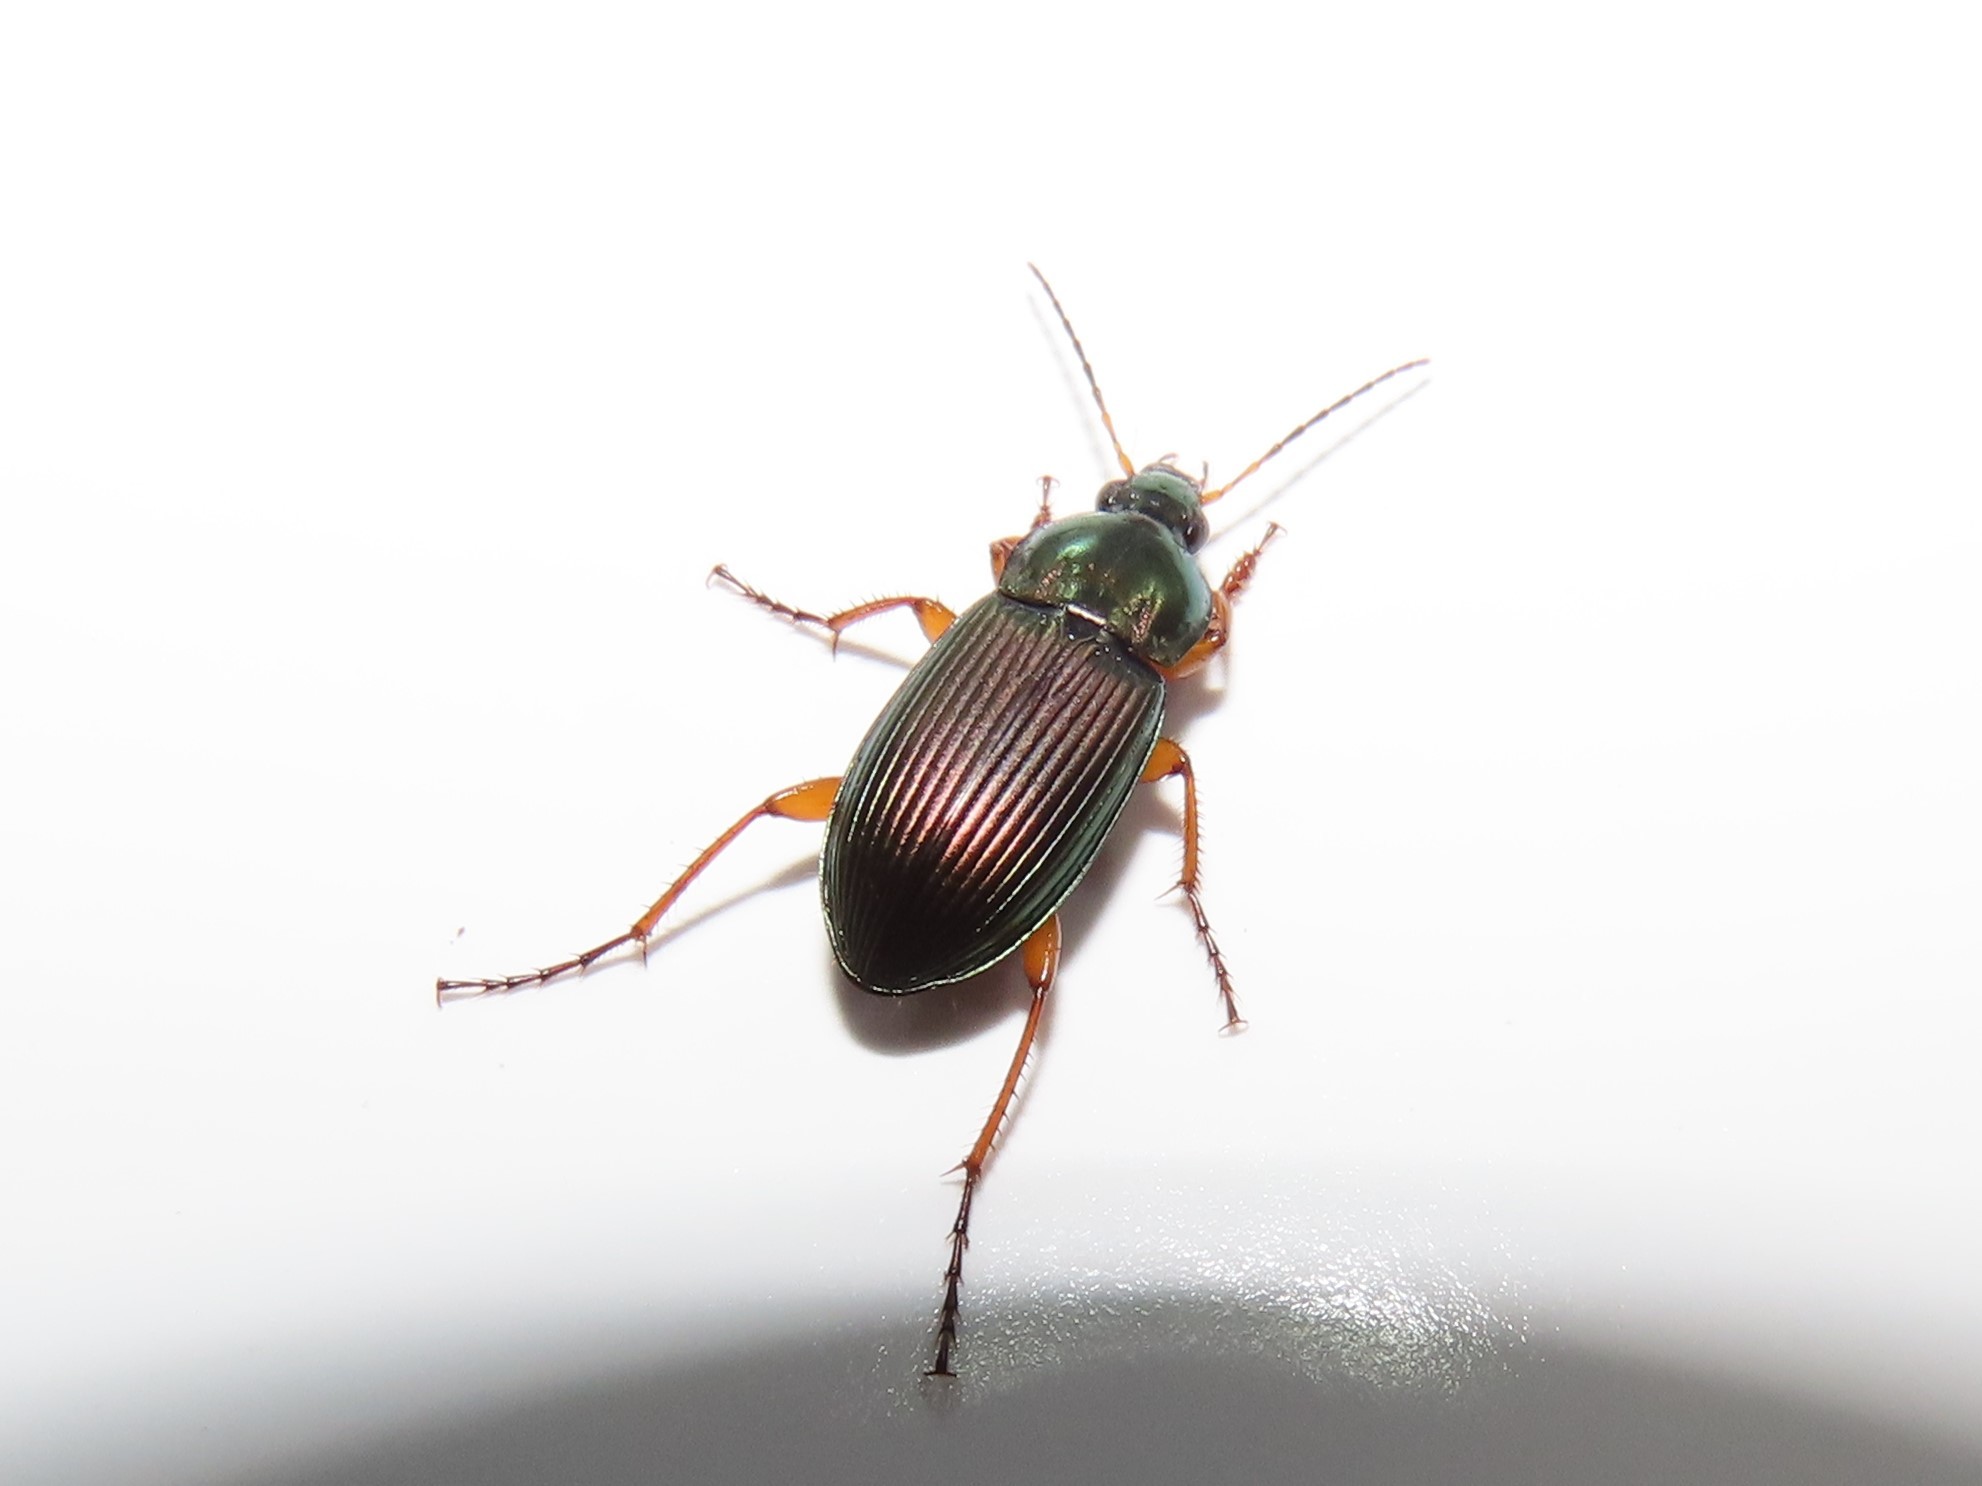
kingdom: Animalia
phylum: Arthropoda
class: Insecta
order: Coleoptera
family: Carabidae
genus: Poecilus
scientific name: Poecilus lucublandus
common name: Woodland ground beetle
